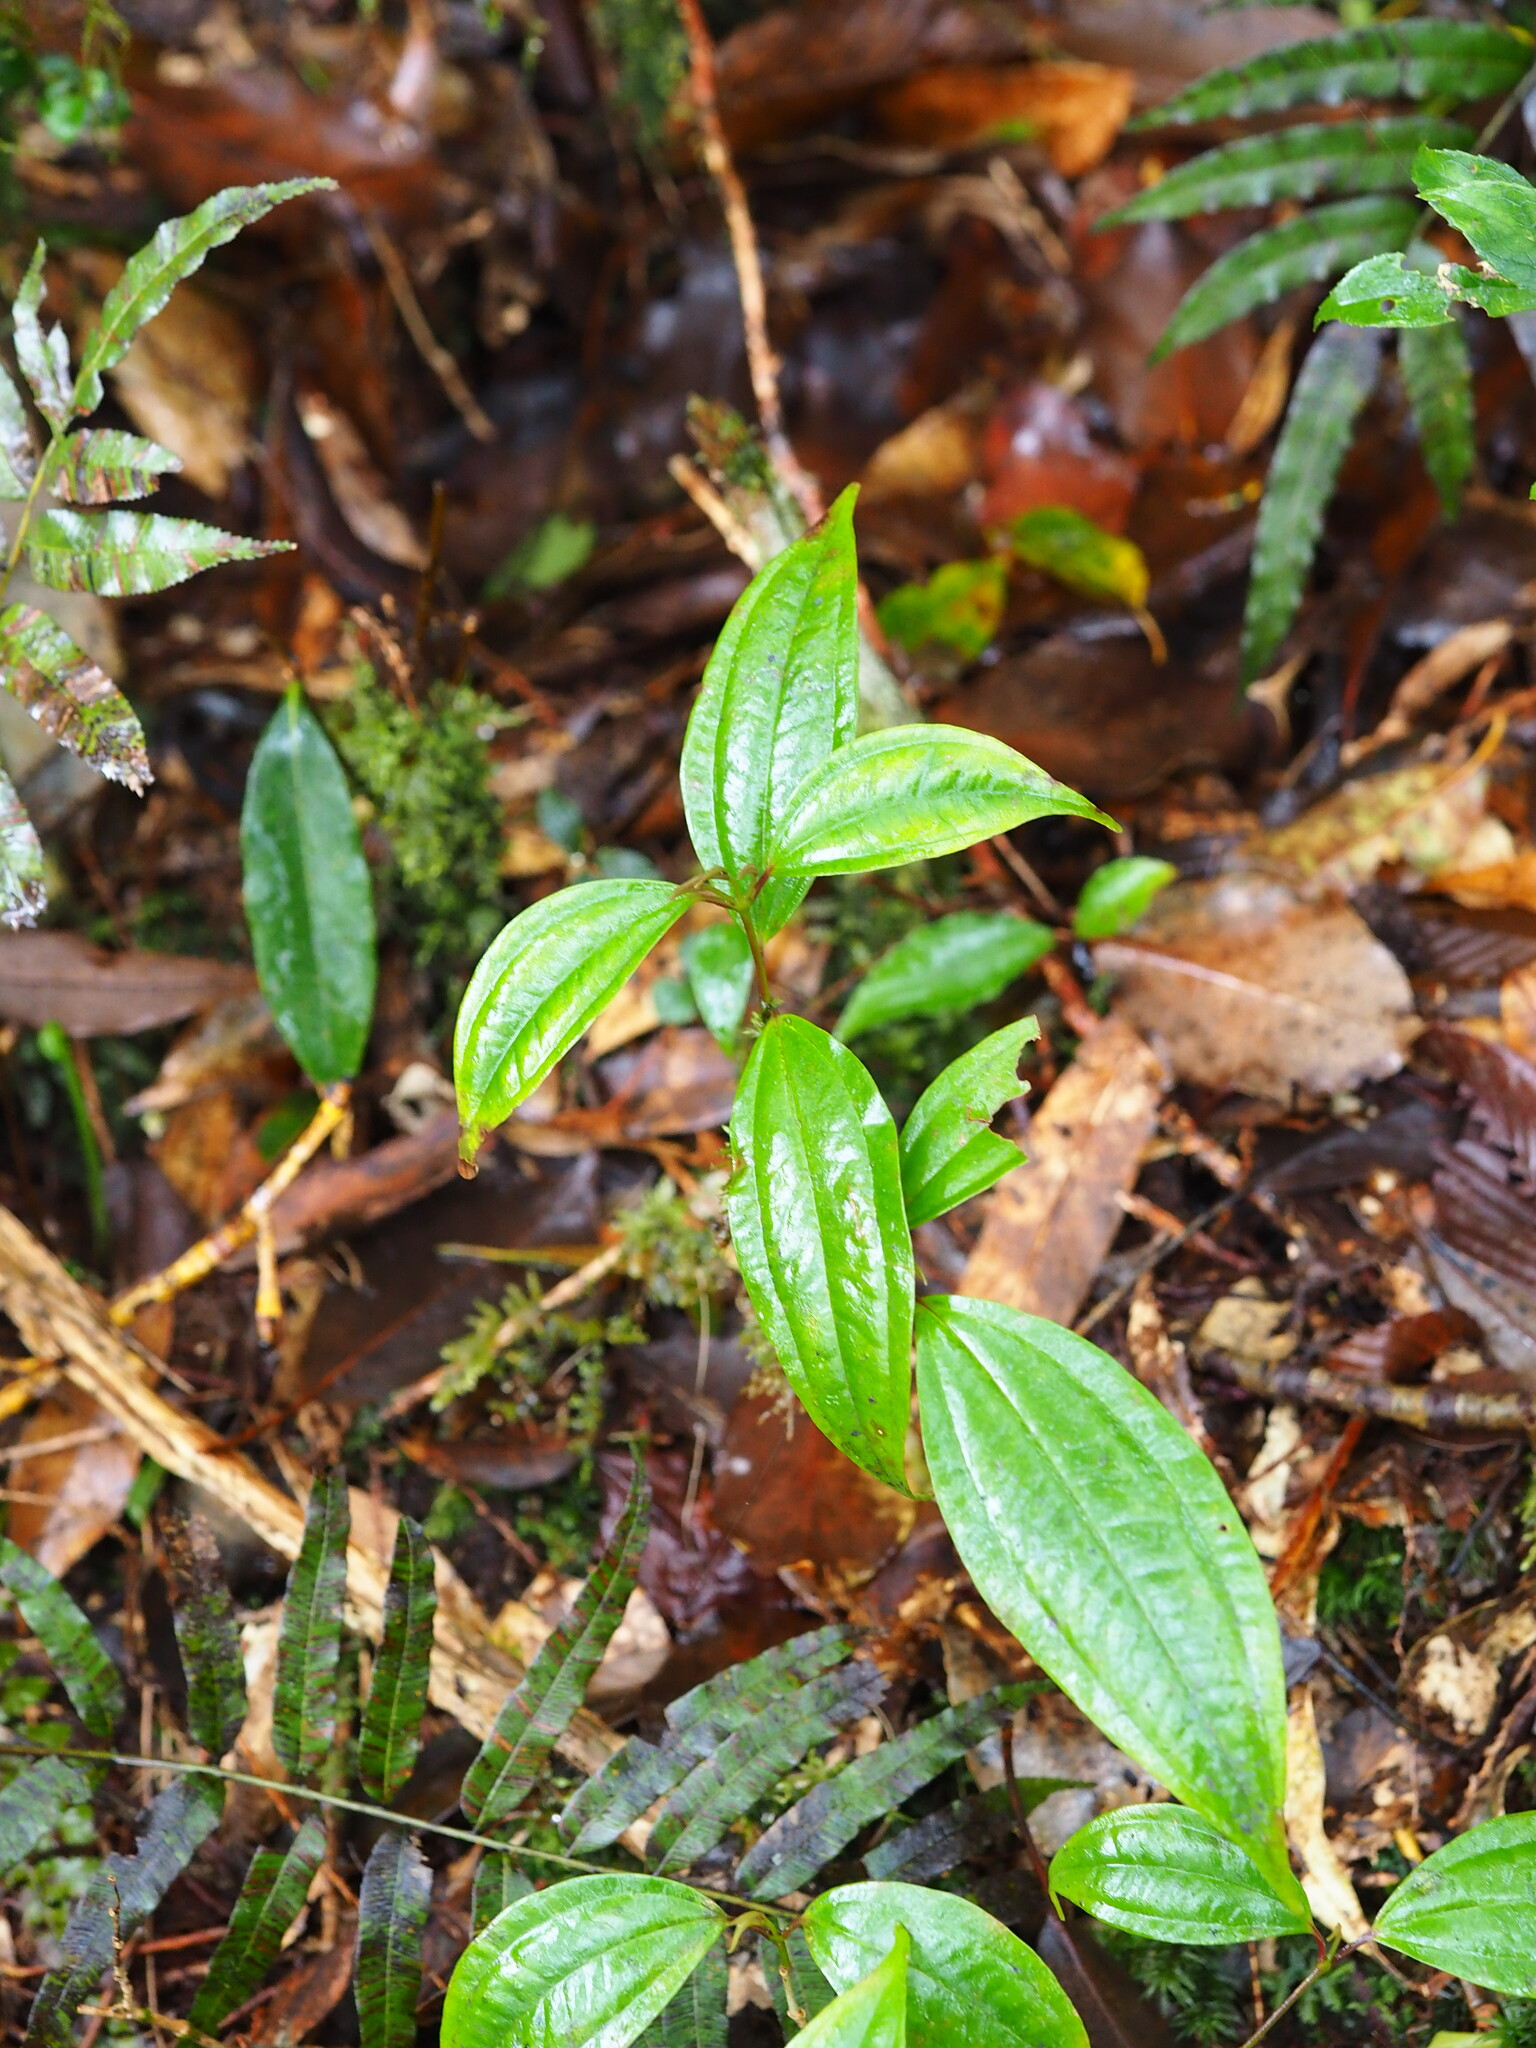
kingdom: Plantae
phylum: Tracheophyta
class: Magnoliopsida
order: Myrtales
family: Melastomataceae
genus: Barthea
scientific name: Barthea barthei
